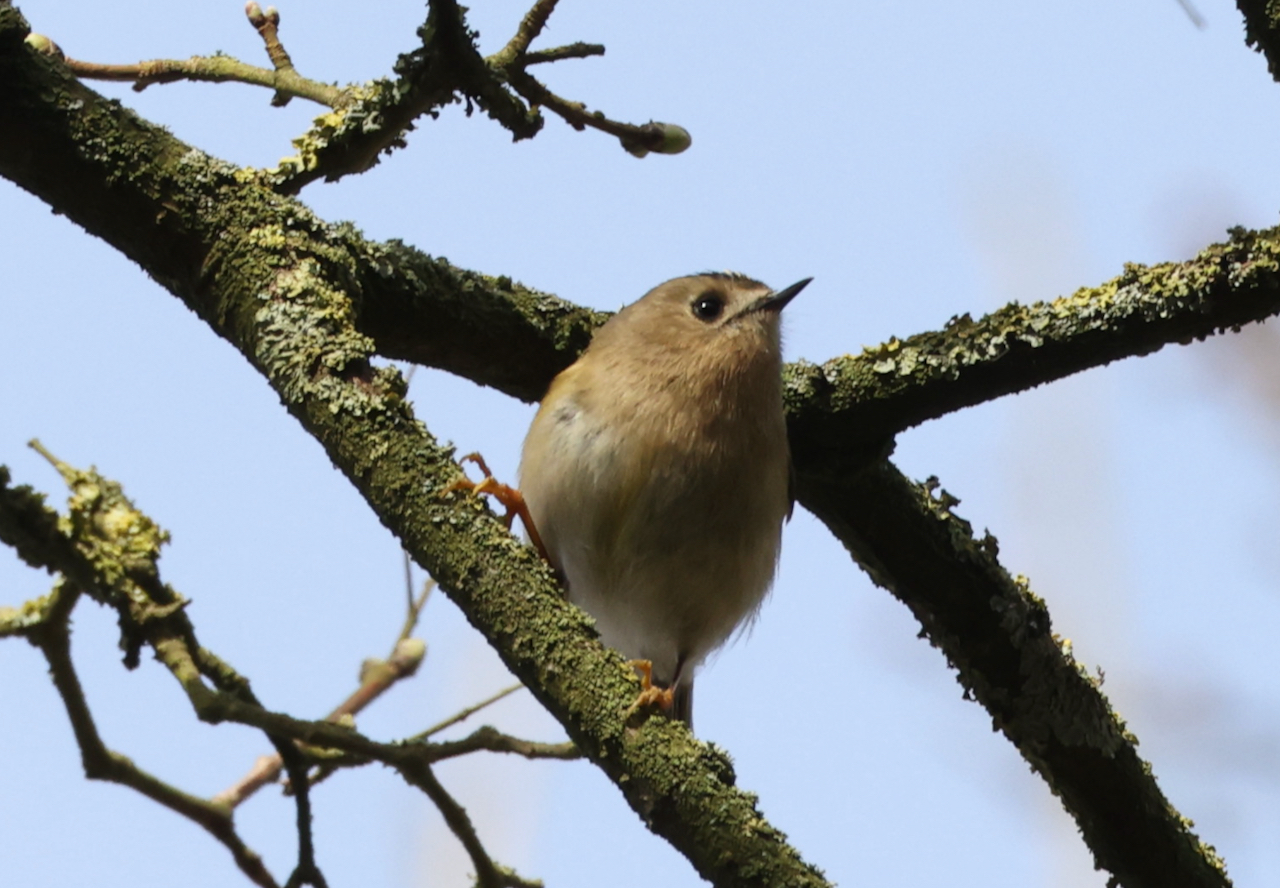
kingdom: Animalia
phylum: Chordata
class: Aves
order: Passeriformes
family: Regulidae
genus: Regulus
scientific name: Regulus regulus
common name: Goldcrest
